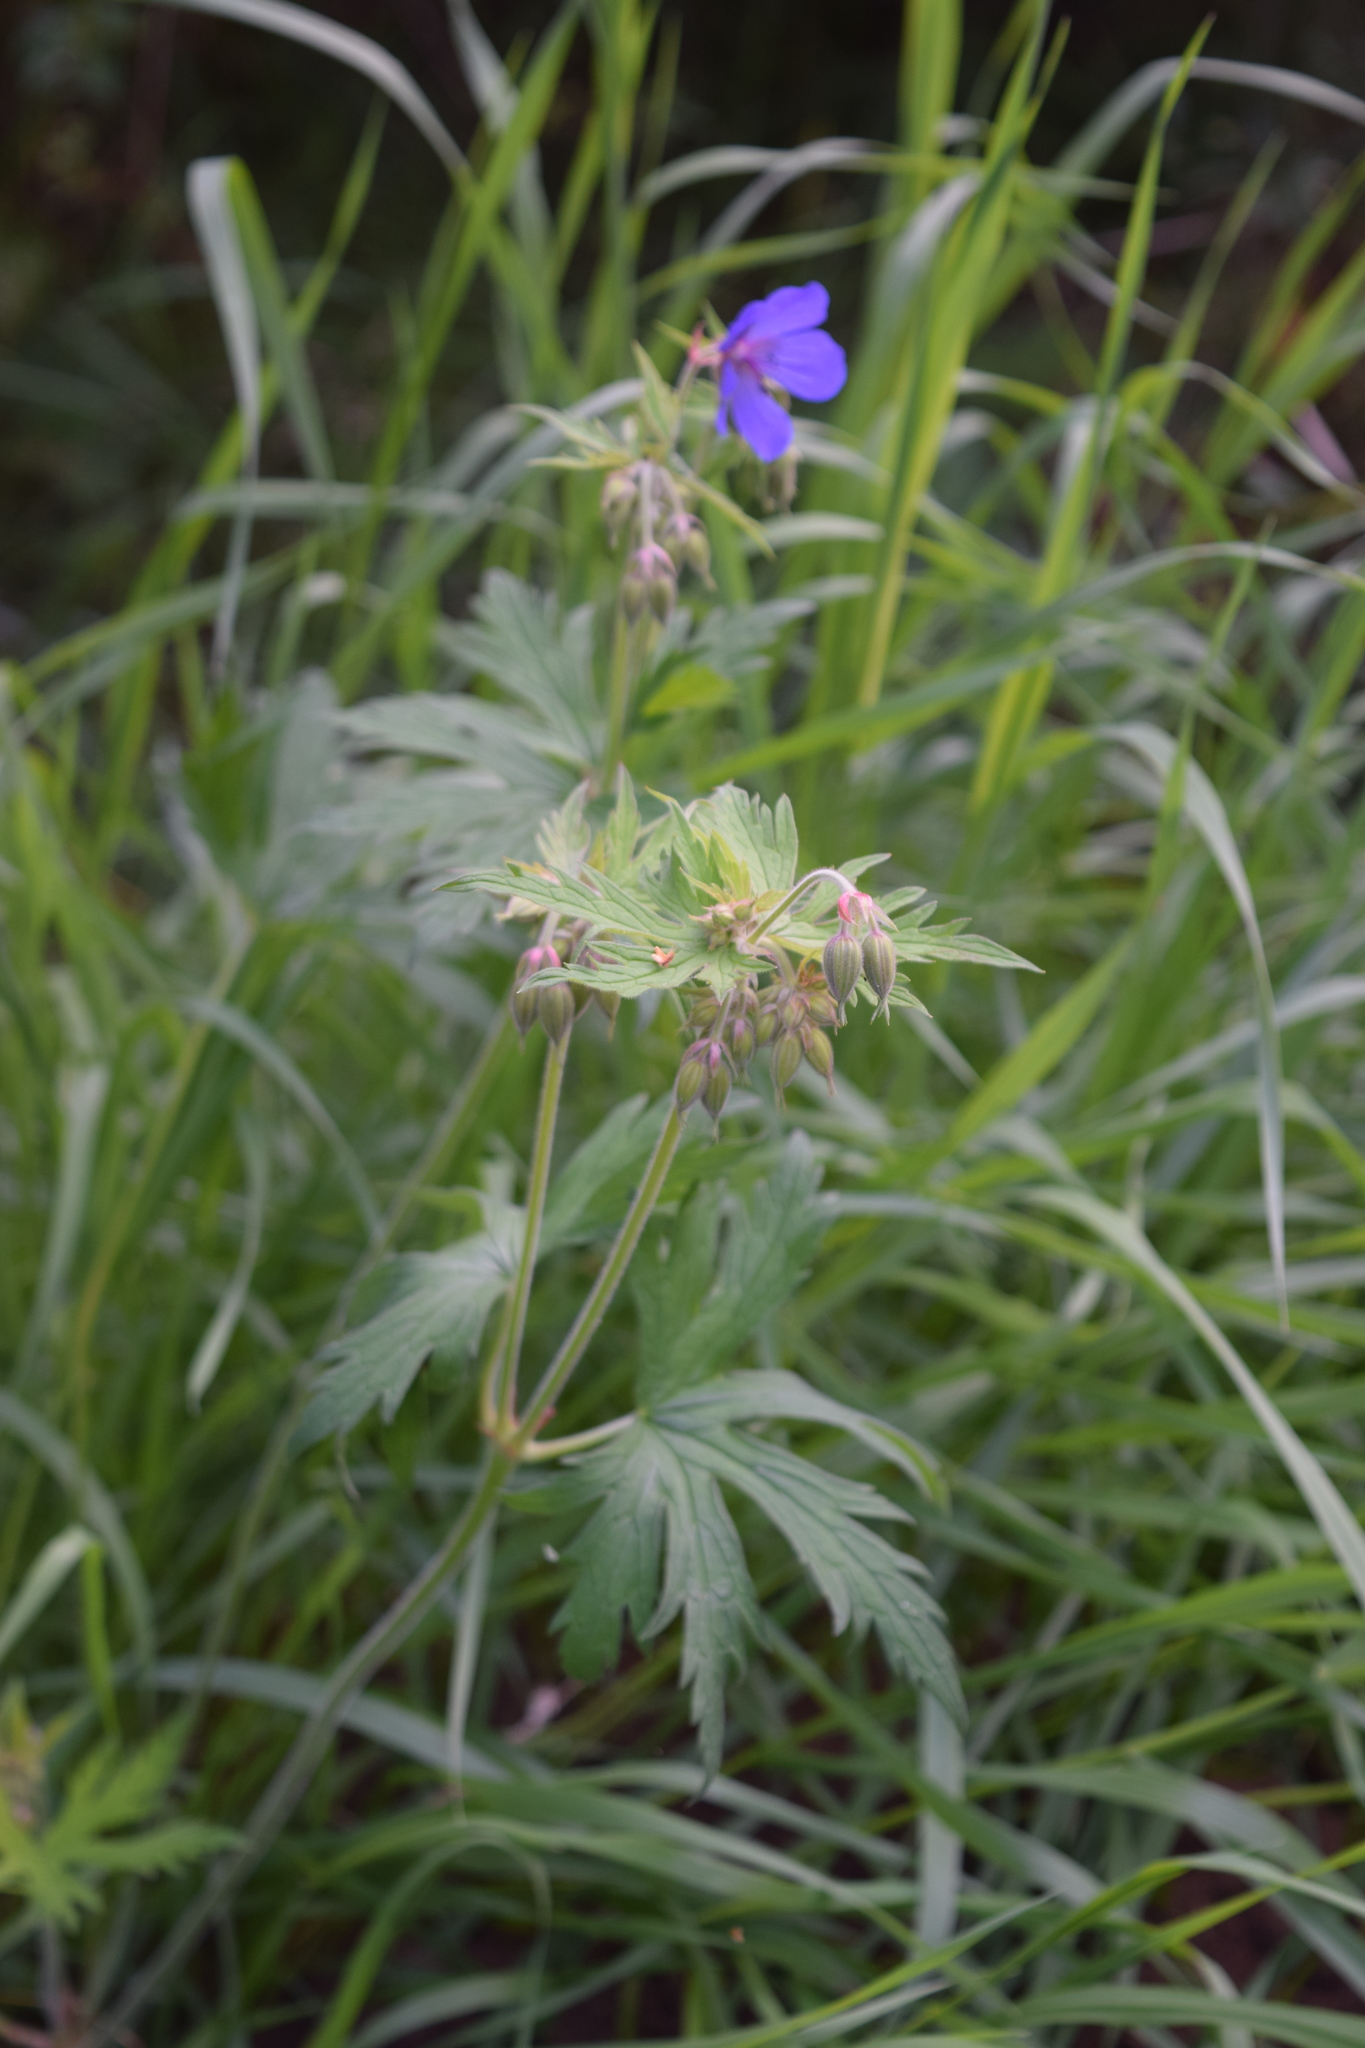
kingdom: Plantae
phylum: Tracheophyta
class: Magnoliopsida
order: Geraniales
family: Geraniaceae
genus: Geranium
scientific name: Geranium pratense
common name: Meadow crane's-bill
